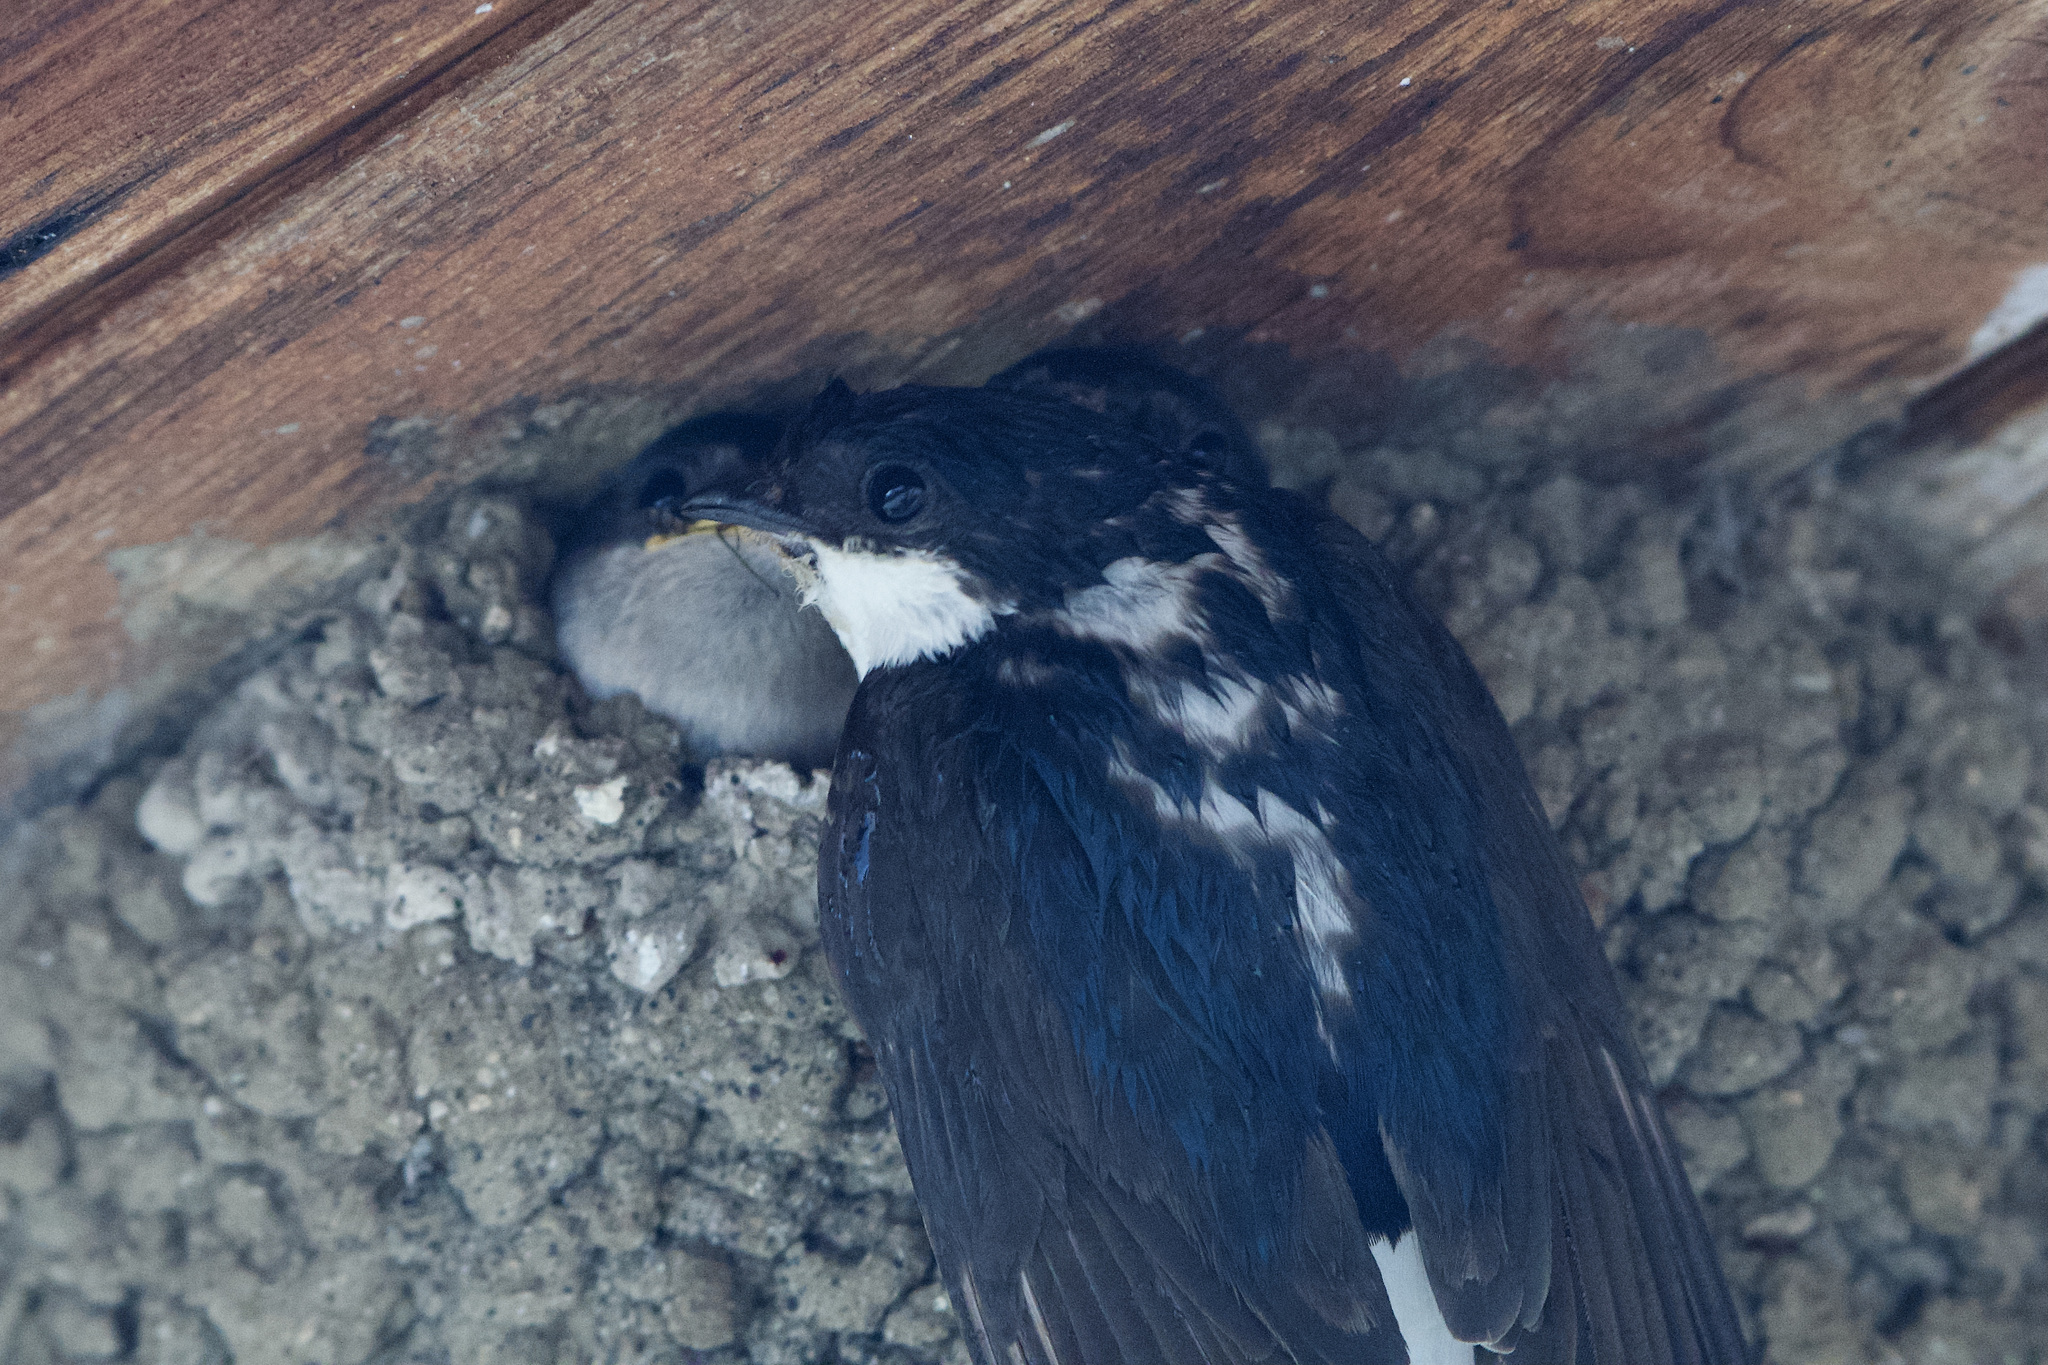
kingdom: Animalia
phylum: Chordata
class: Aves
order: Passeriformes
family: Hirundinidae
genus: Delichon
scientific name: Delichon urbicum
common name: Common house martin
